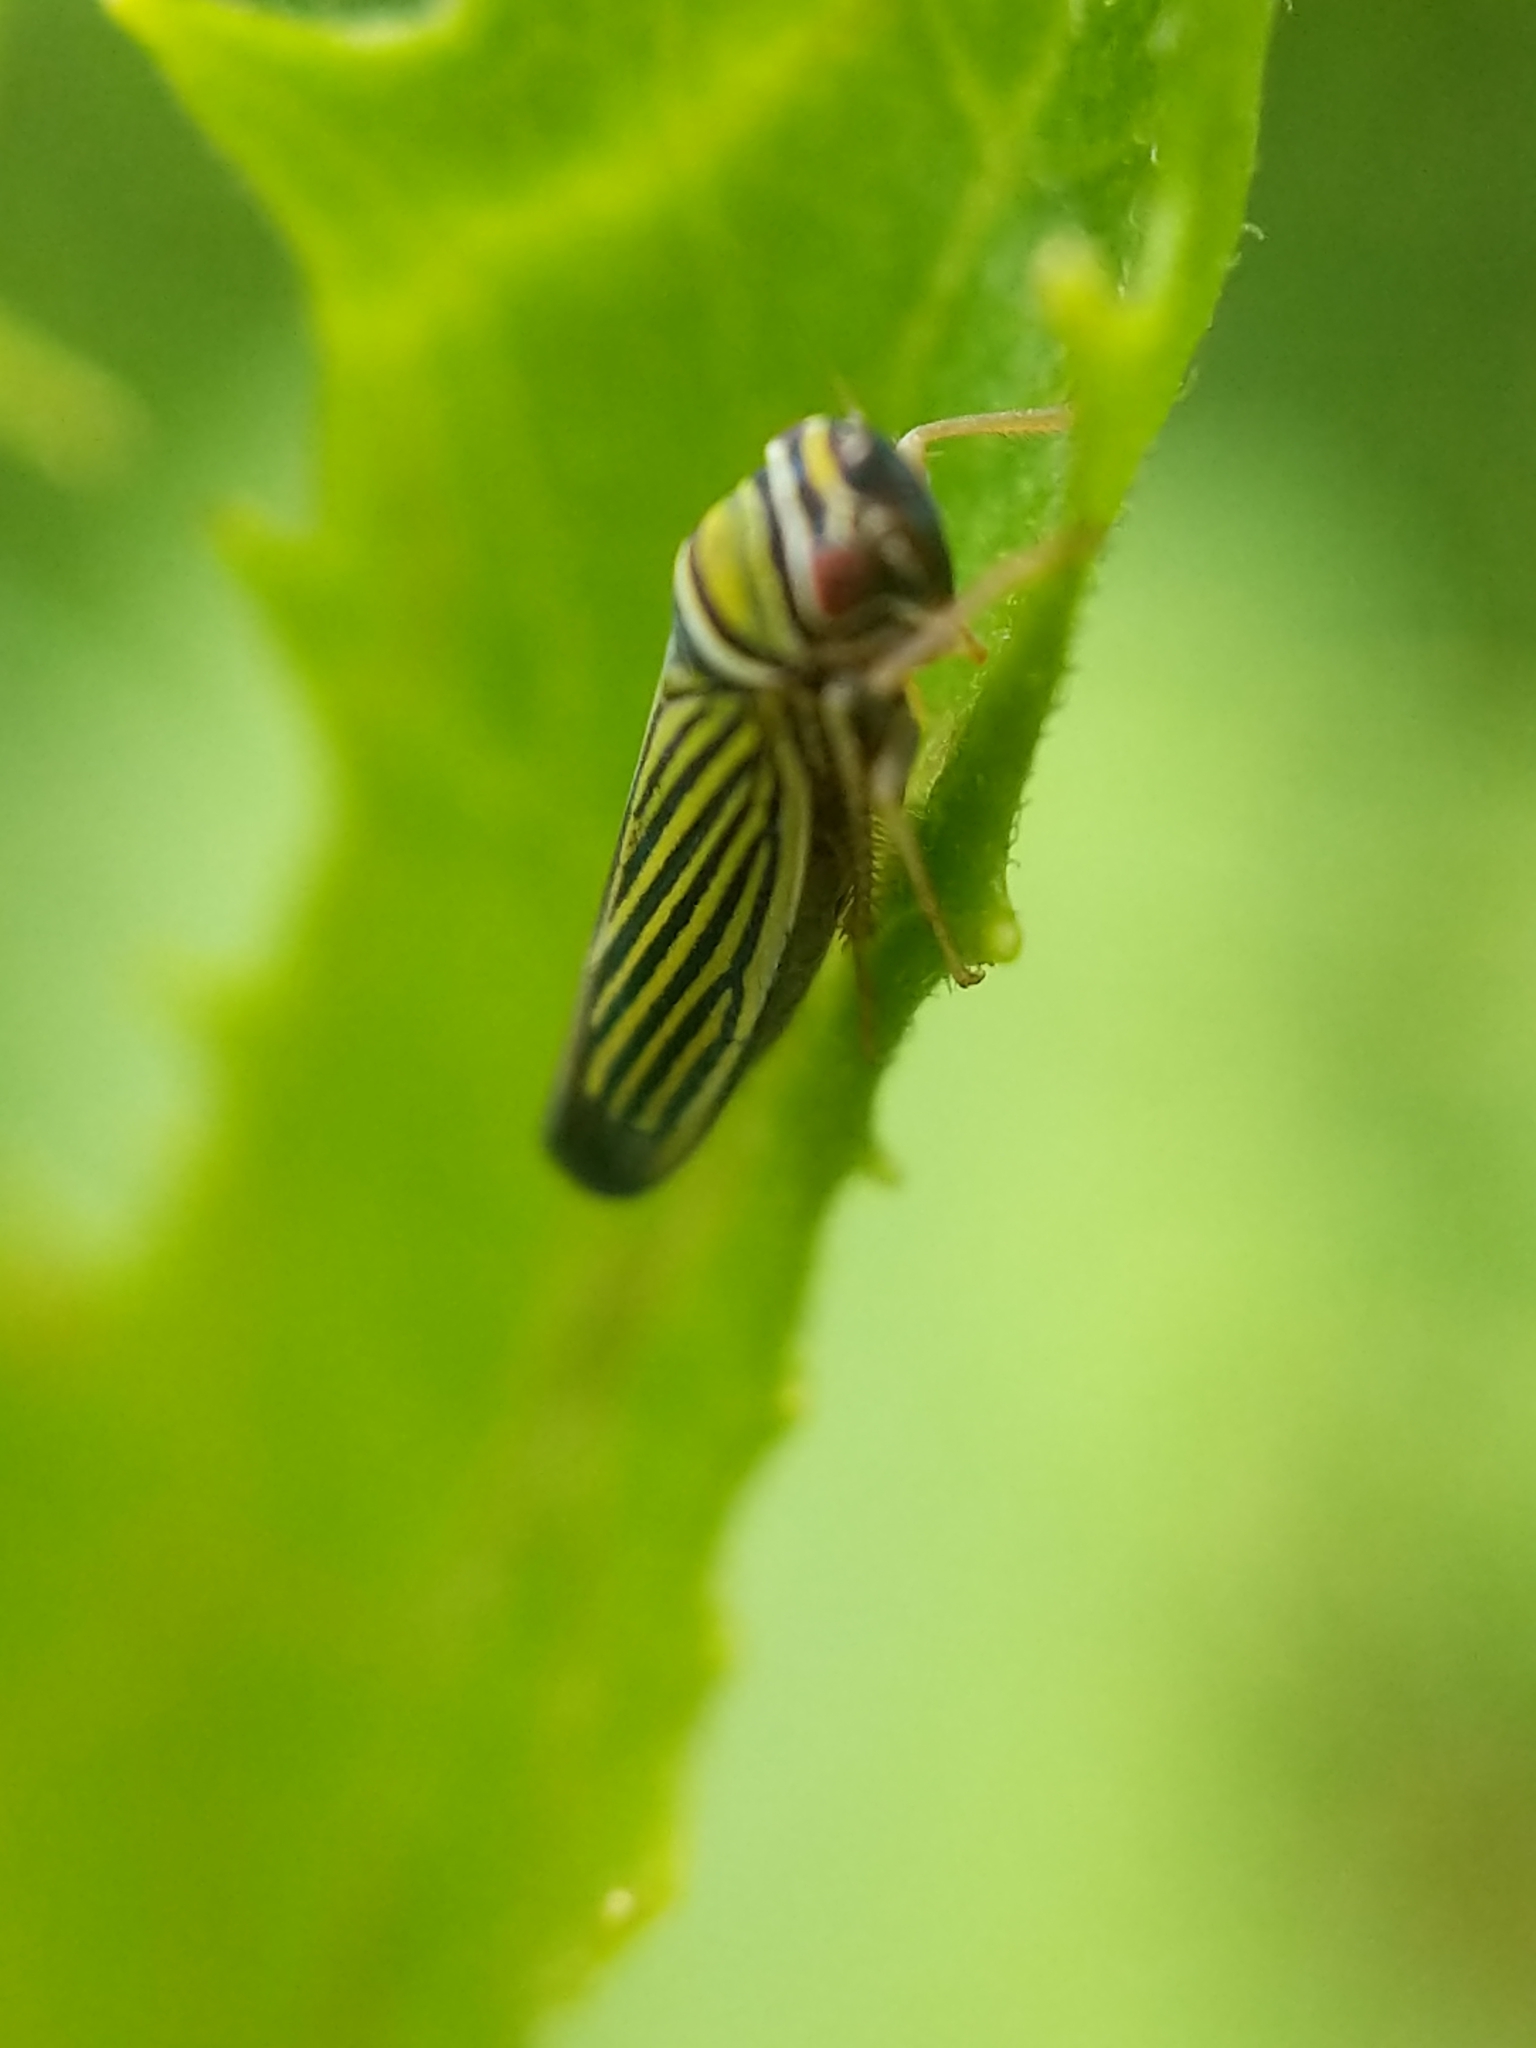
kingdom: Animalia
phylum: Arthropoda
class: Insecta
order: Hemiptera
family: Cicadellidae
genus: Tylozygus
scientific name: Tylozygus bifidus
